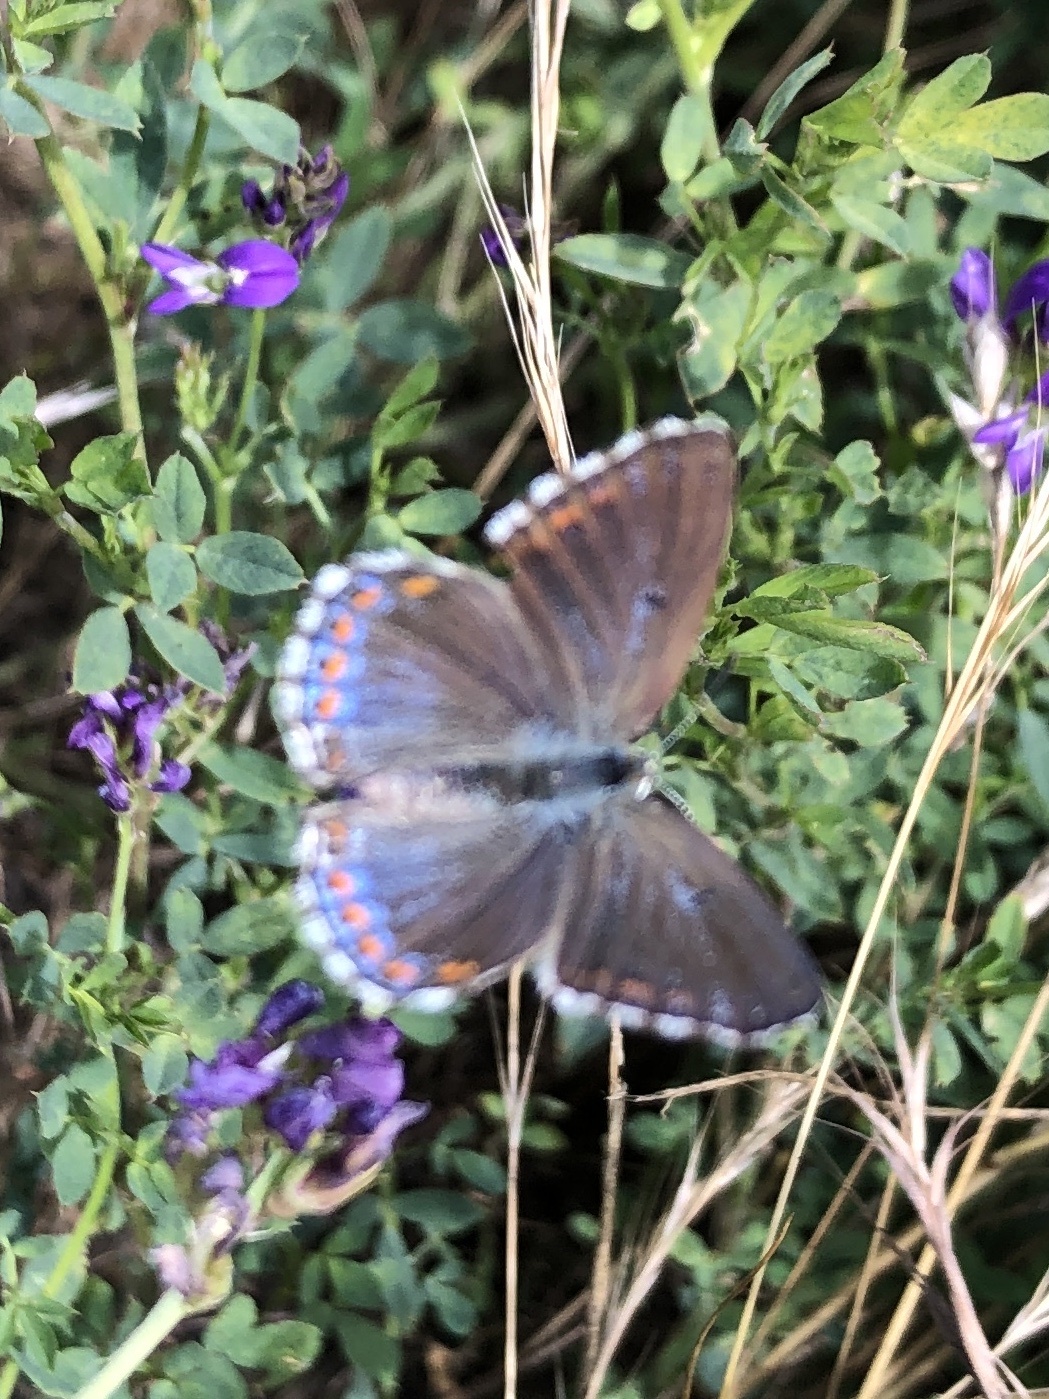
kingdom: Animalia
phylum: Arthropoda
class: Insecta
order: Lepidoptera
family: Lycaenidae
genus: Lysandra
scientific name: Lysandra bellargus
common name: Adonis blue
